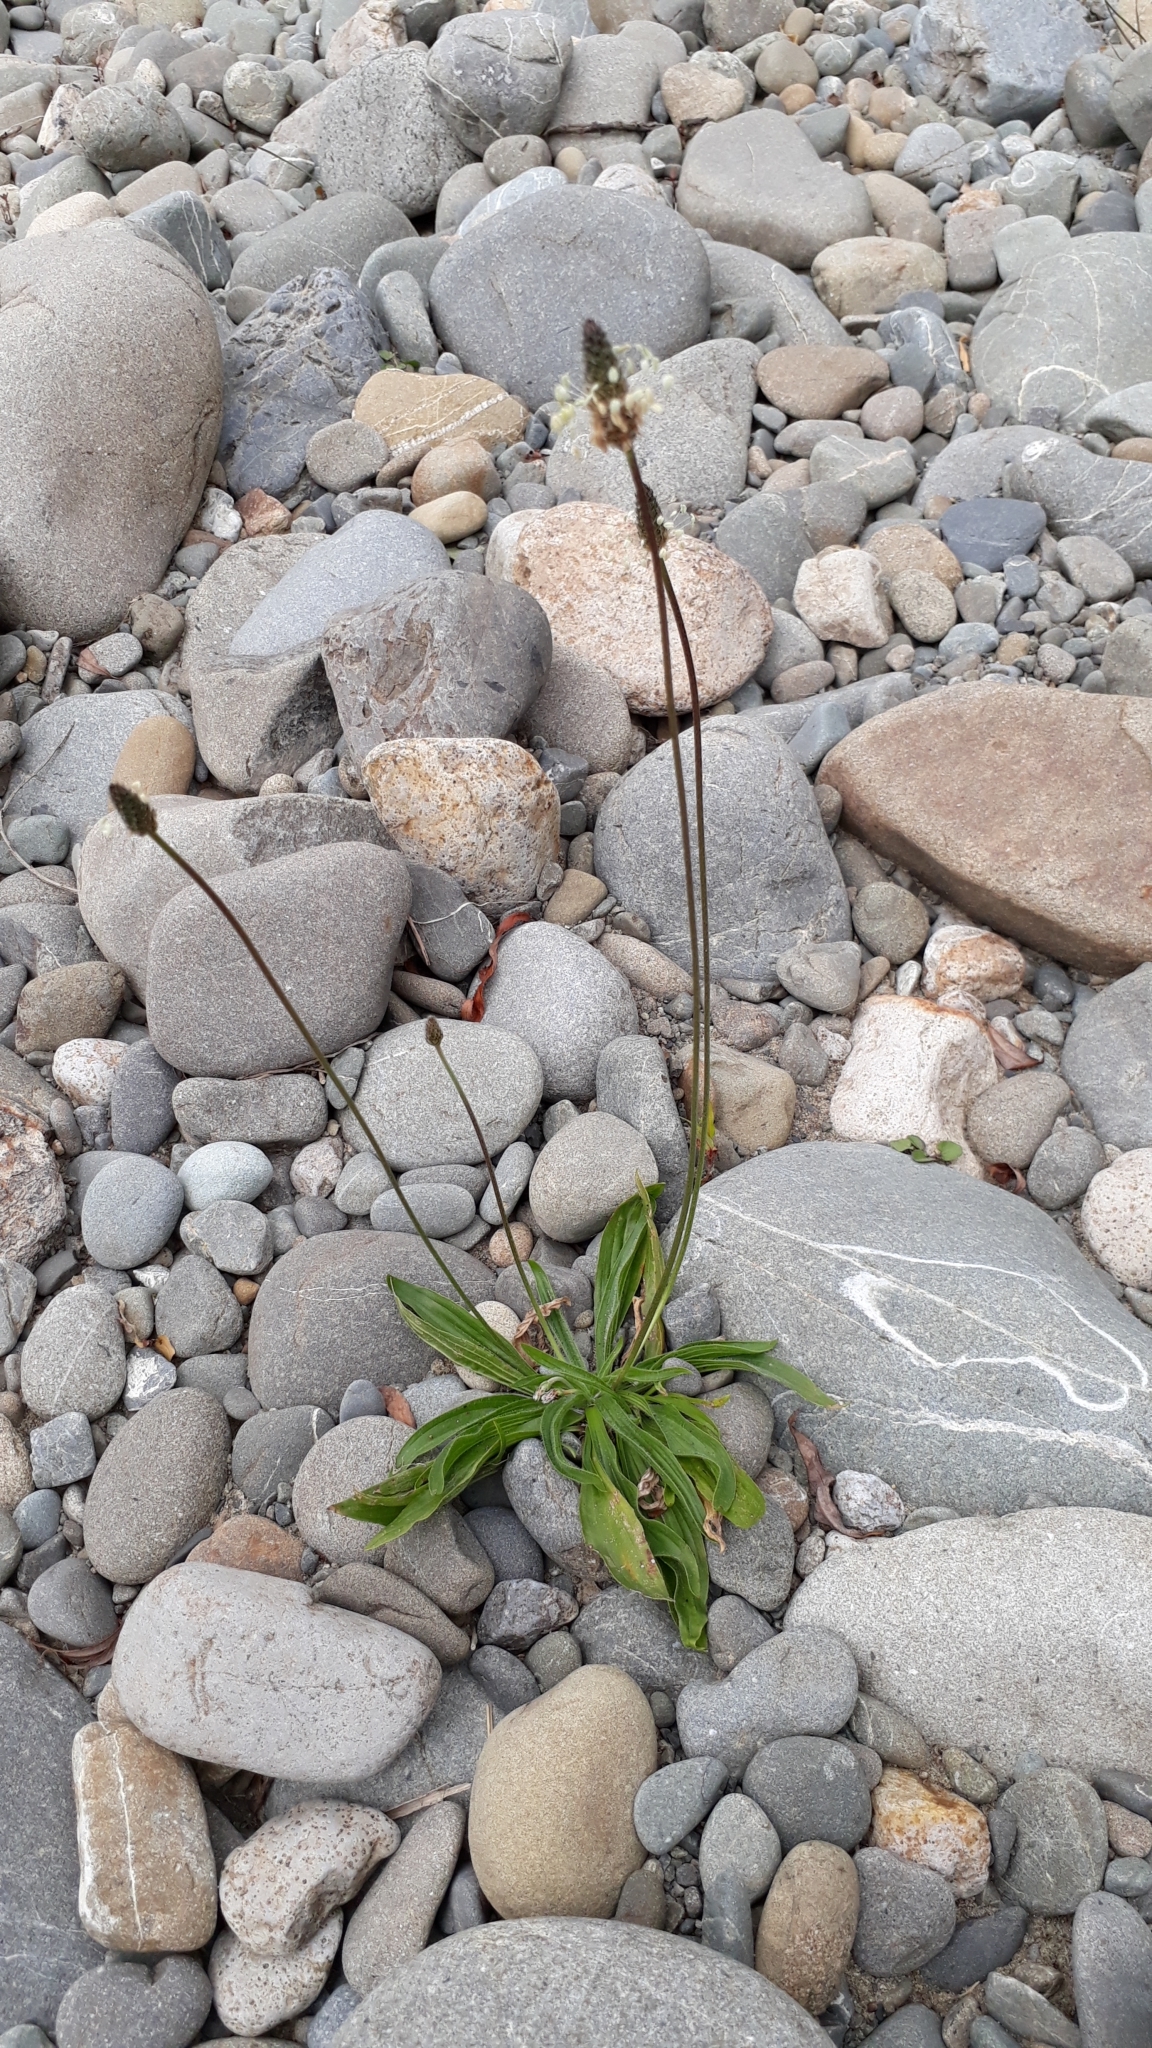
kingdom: Plantae
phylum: Tracheophyta
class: Magnoliopsida
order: Lamiales
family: Plantaginaceae
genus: Plantago
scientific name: Plantago lanceolata
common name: Ribwort plantain
